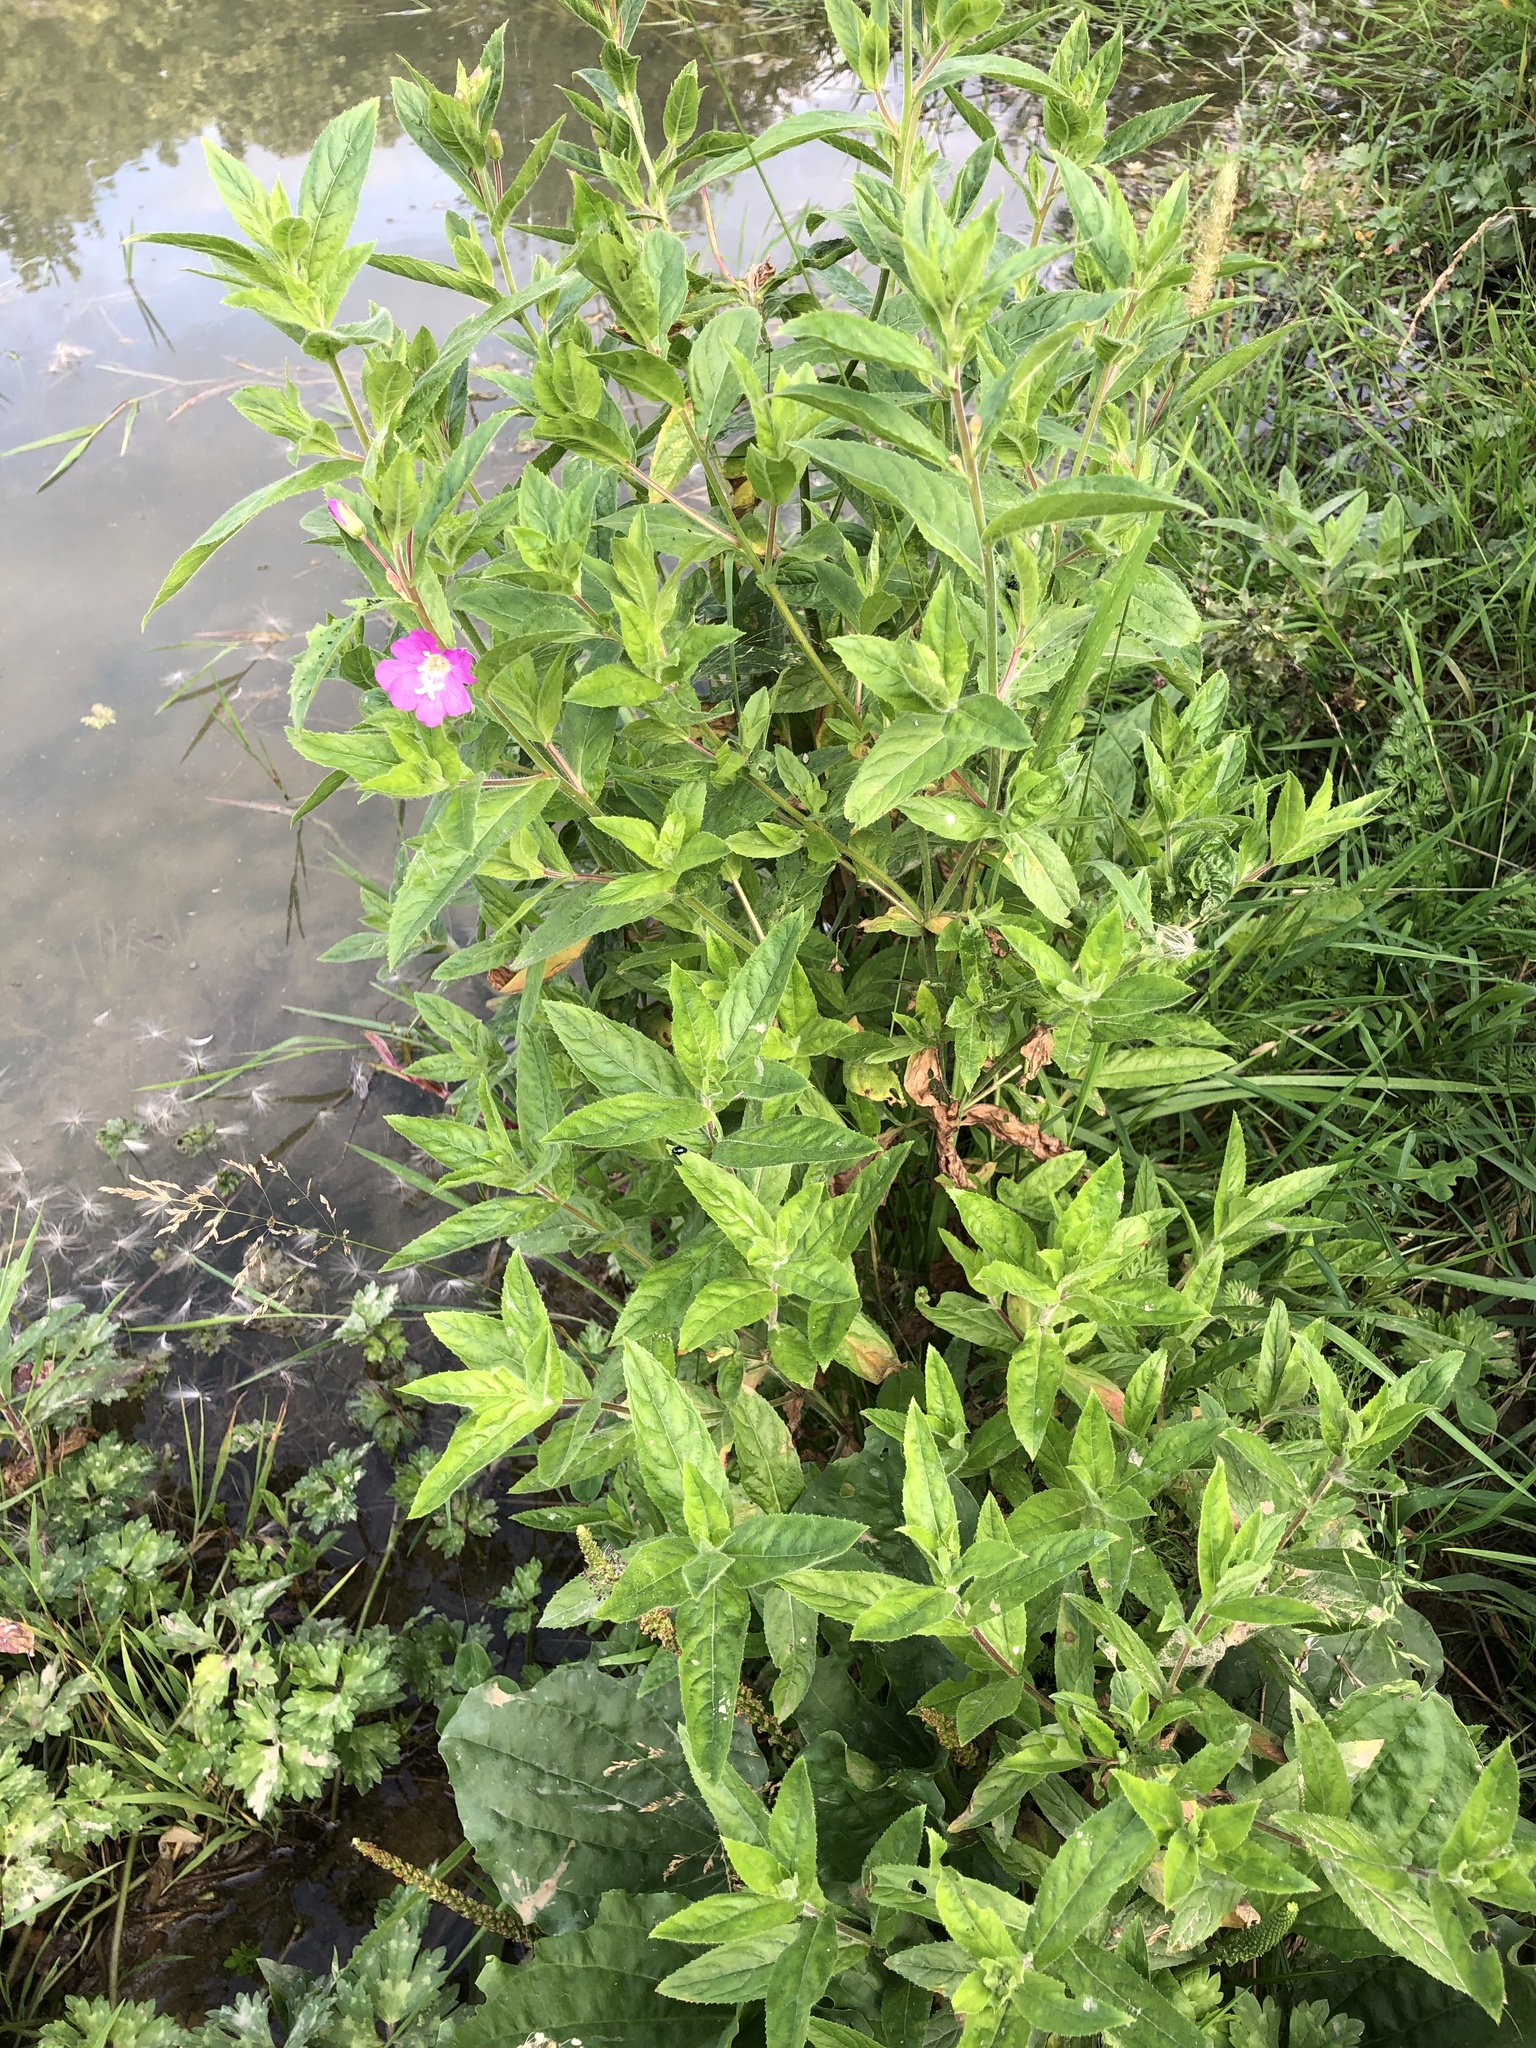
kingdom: Plantae
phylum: Tracheophyta
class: Magnoliopsida
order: Myrtales
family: Onagraceae
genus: Epilobium
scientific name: Epilobium hirsutum
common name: Great willowherb
